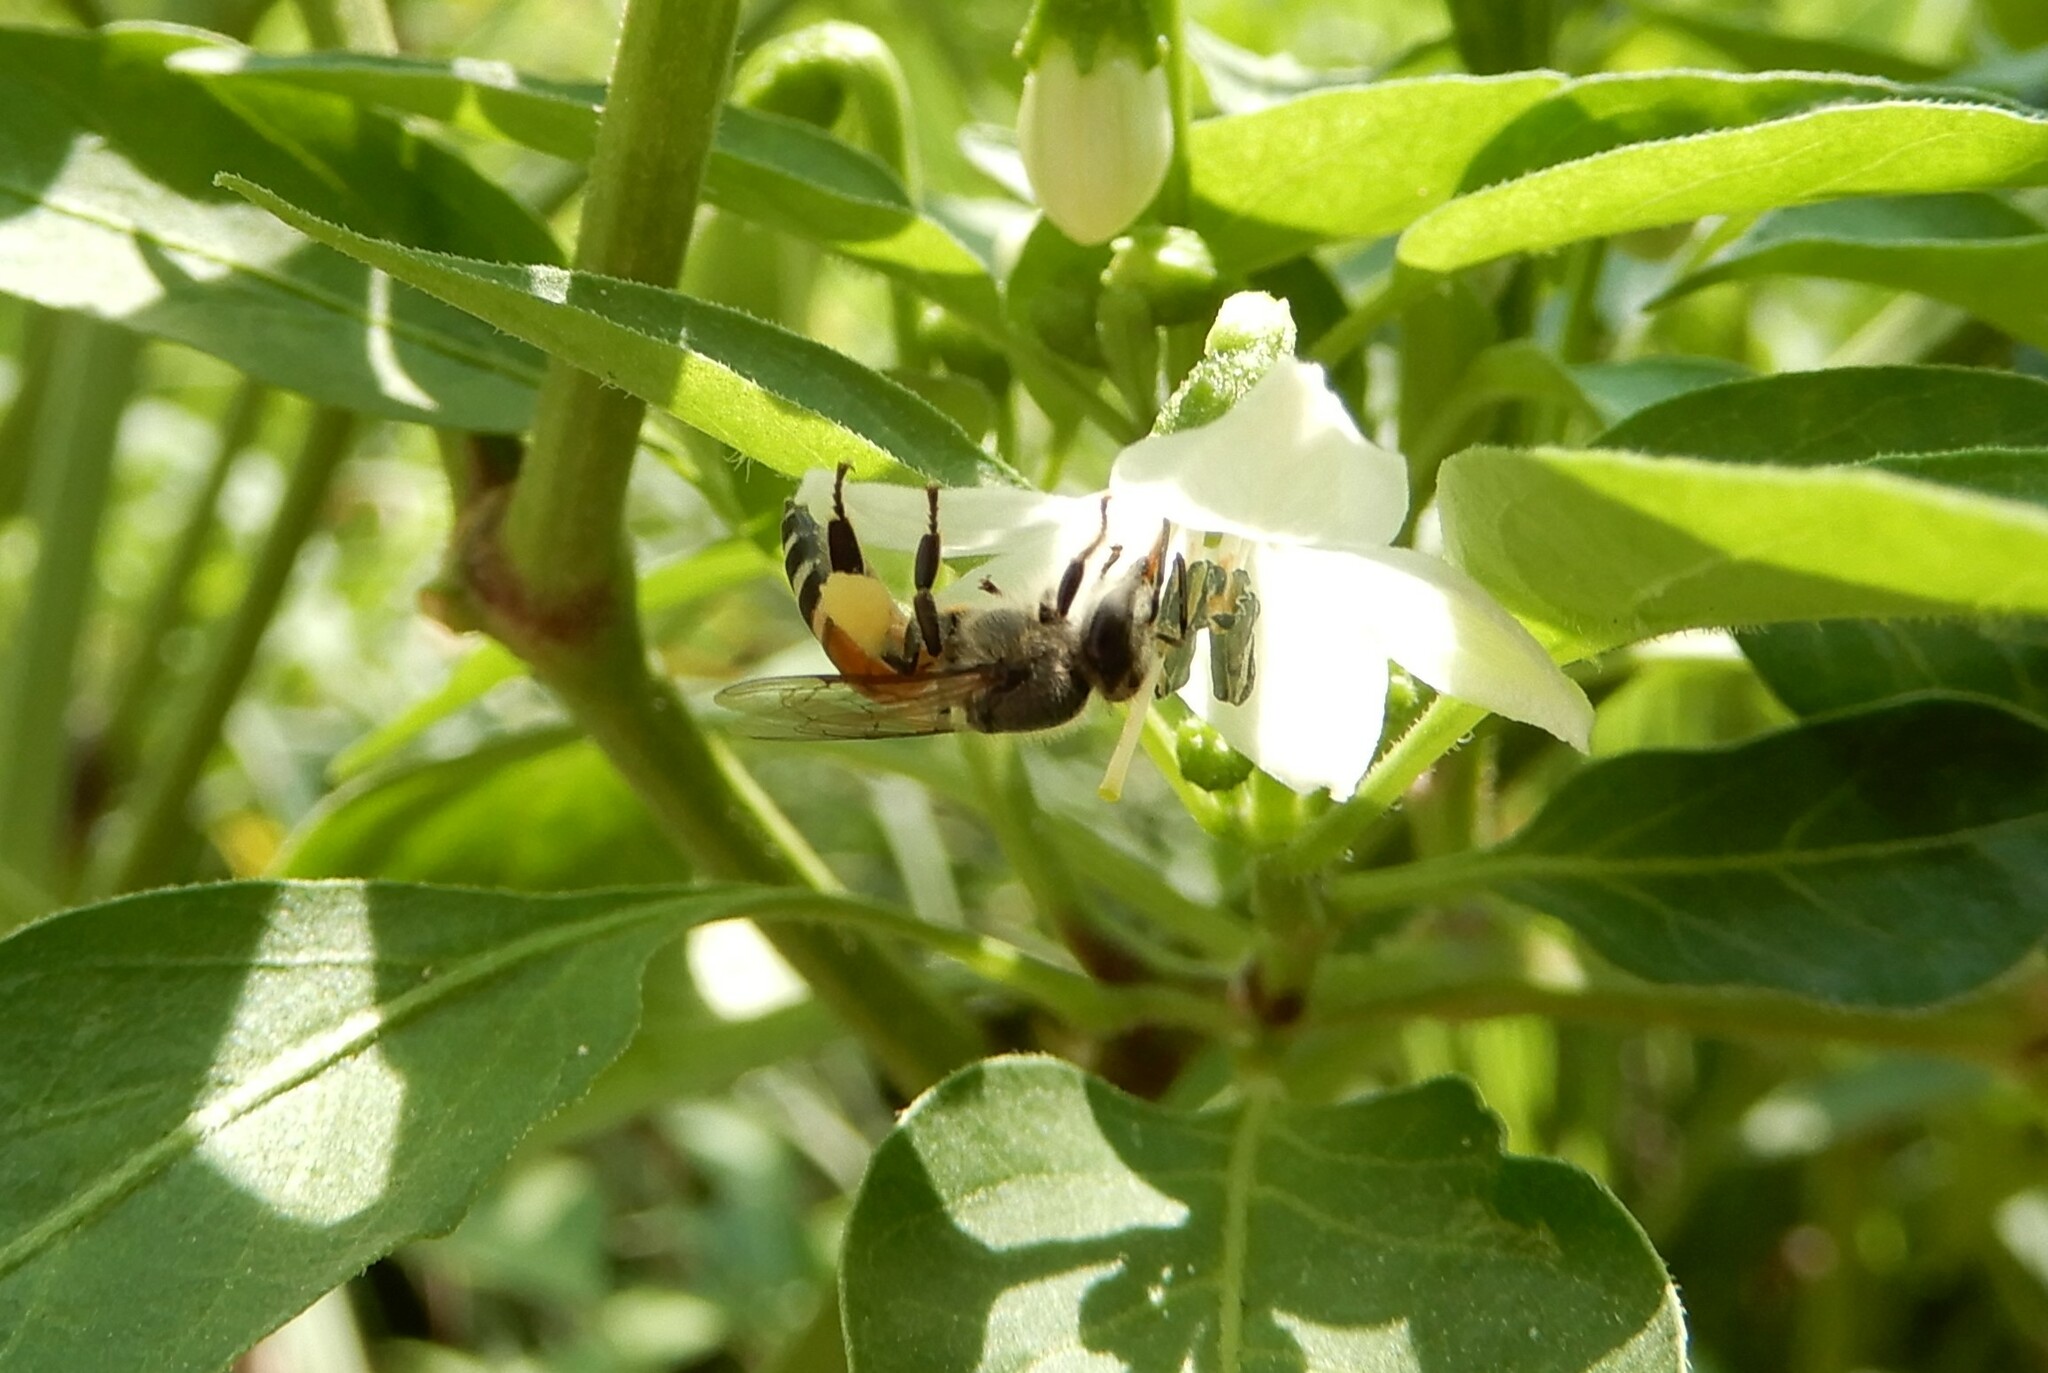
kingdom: Animalia
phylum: Arthropoda
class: Insecta
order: Hymenoptera
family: Apidae
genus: Apis
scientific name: Apis florea
